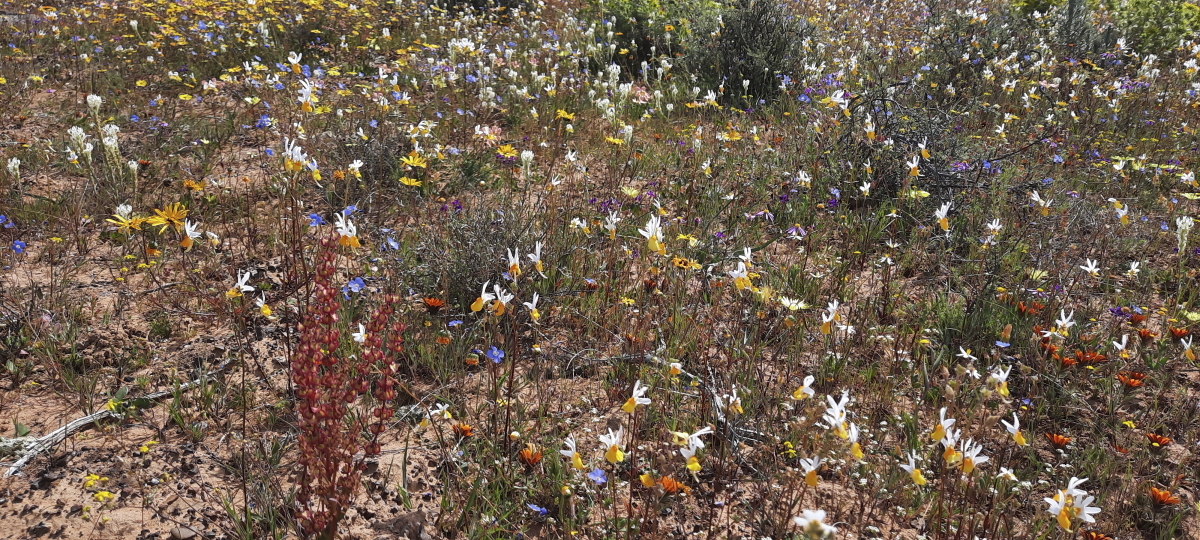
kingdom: Plantae
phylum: Tracheophyta
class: Magnoliopsida
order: Lamiales
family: Scrophulariaceae
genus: Nemesia
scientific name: Nemesia macroceras
